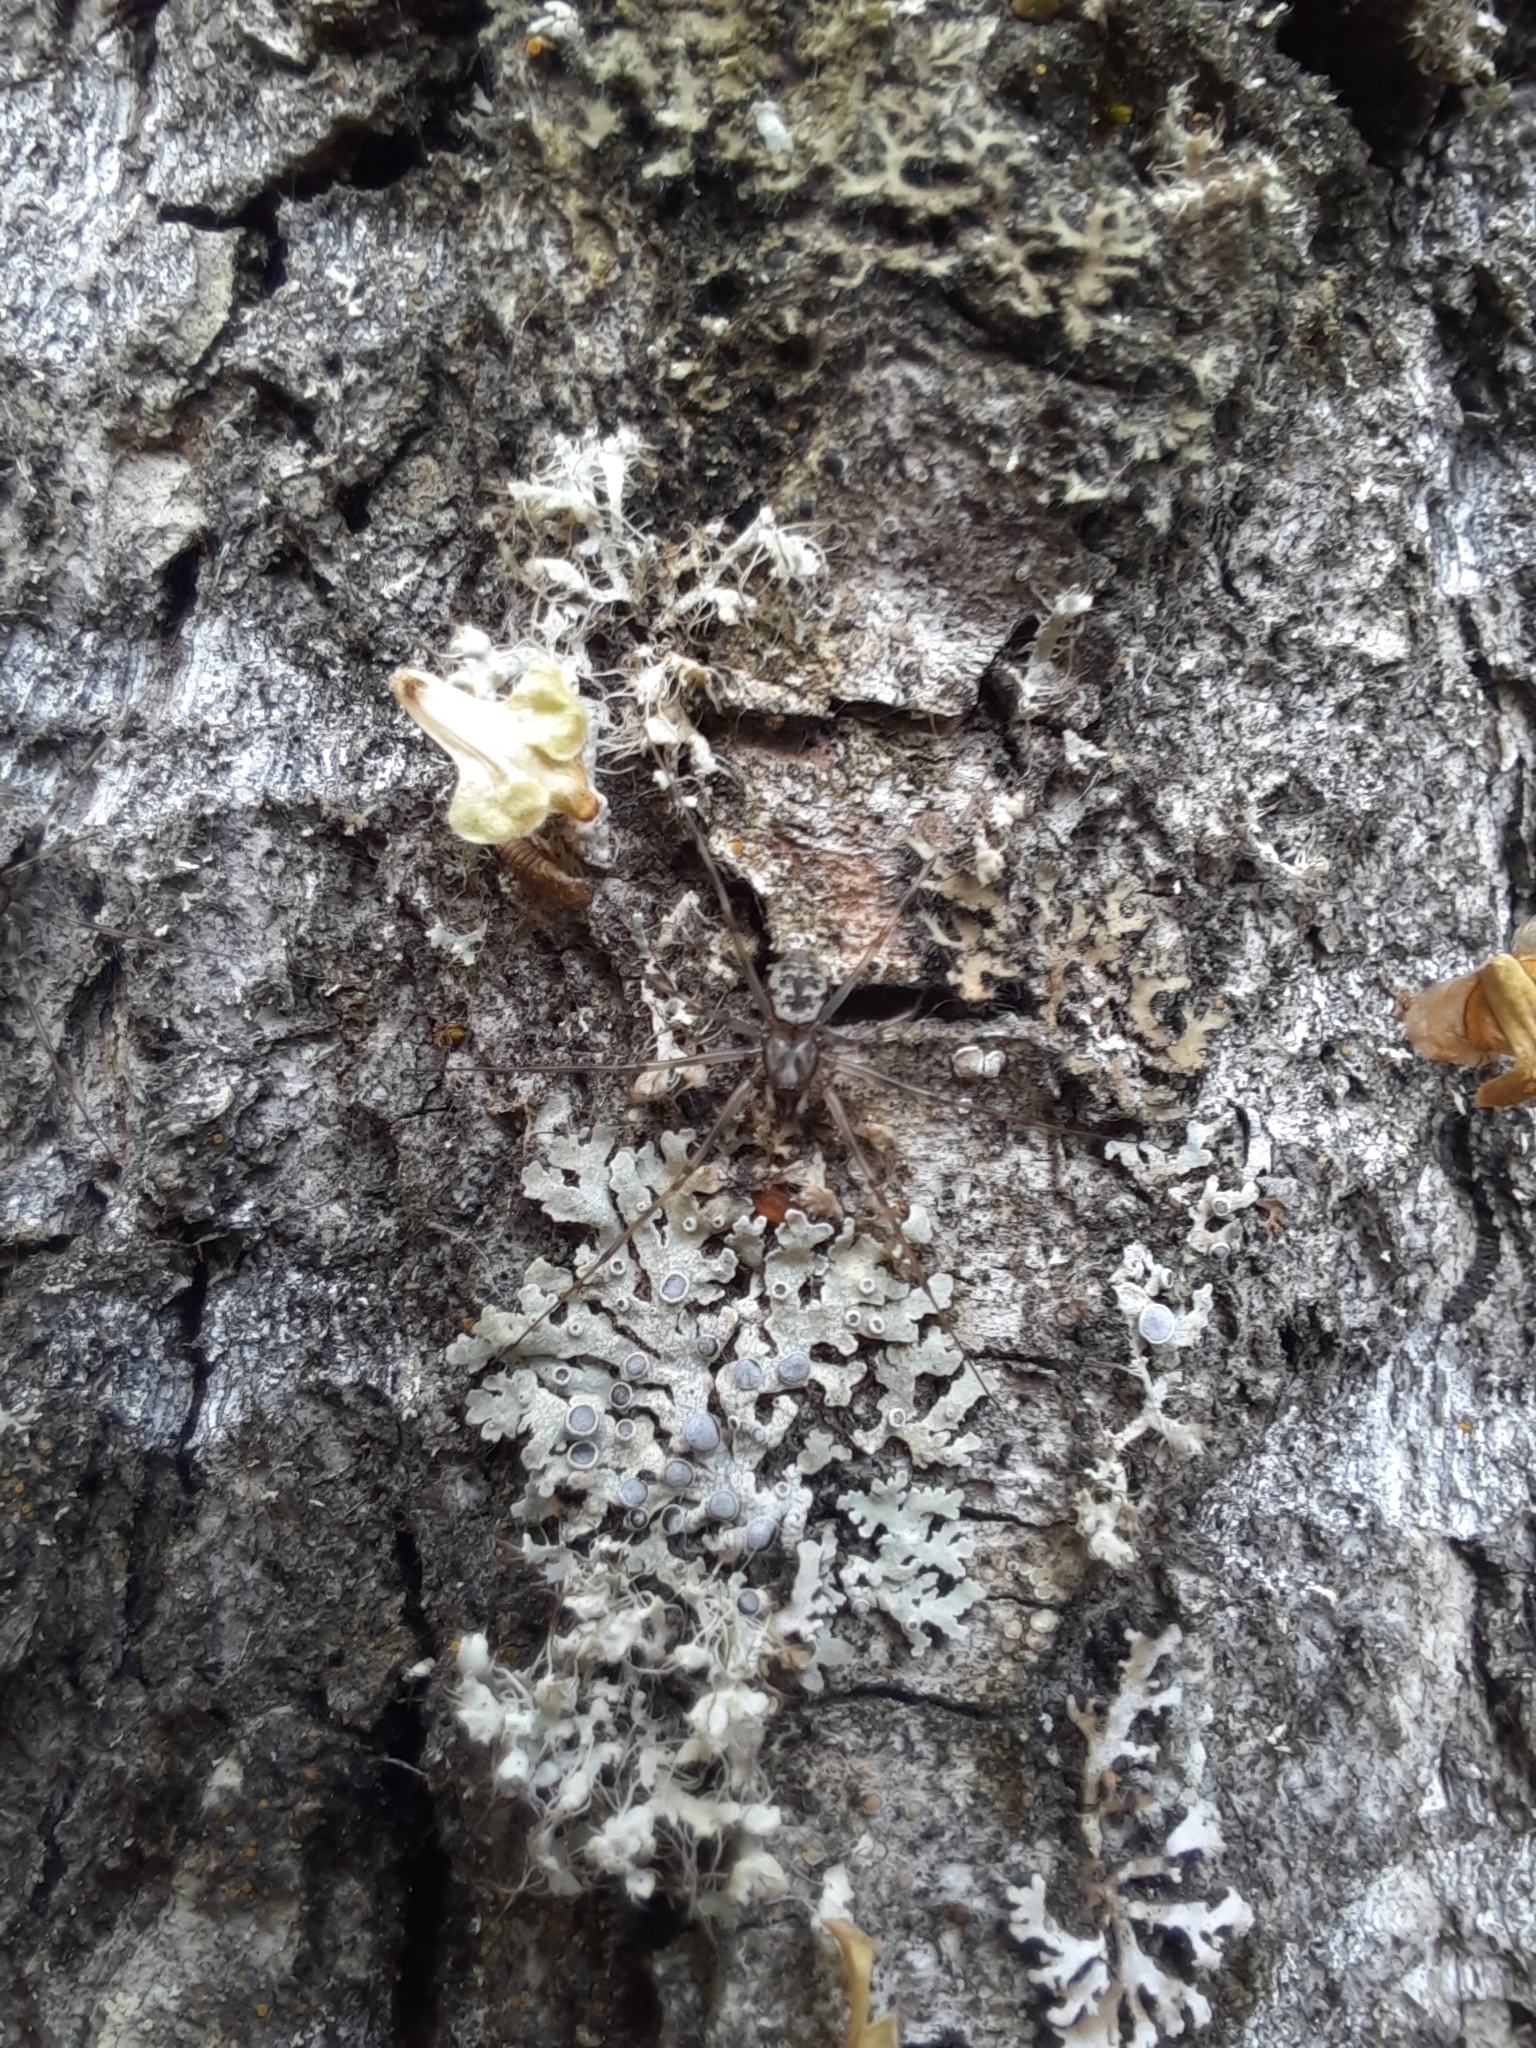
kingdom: Animalia
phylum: Arthropoda
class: Arachnida
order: Araneae
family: Linyphiidae
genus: Drapetisca
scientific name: Drapetisca alteranda
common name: Northern long-toothed sheetweaver
